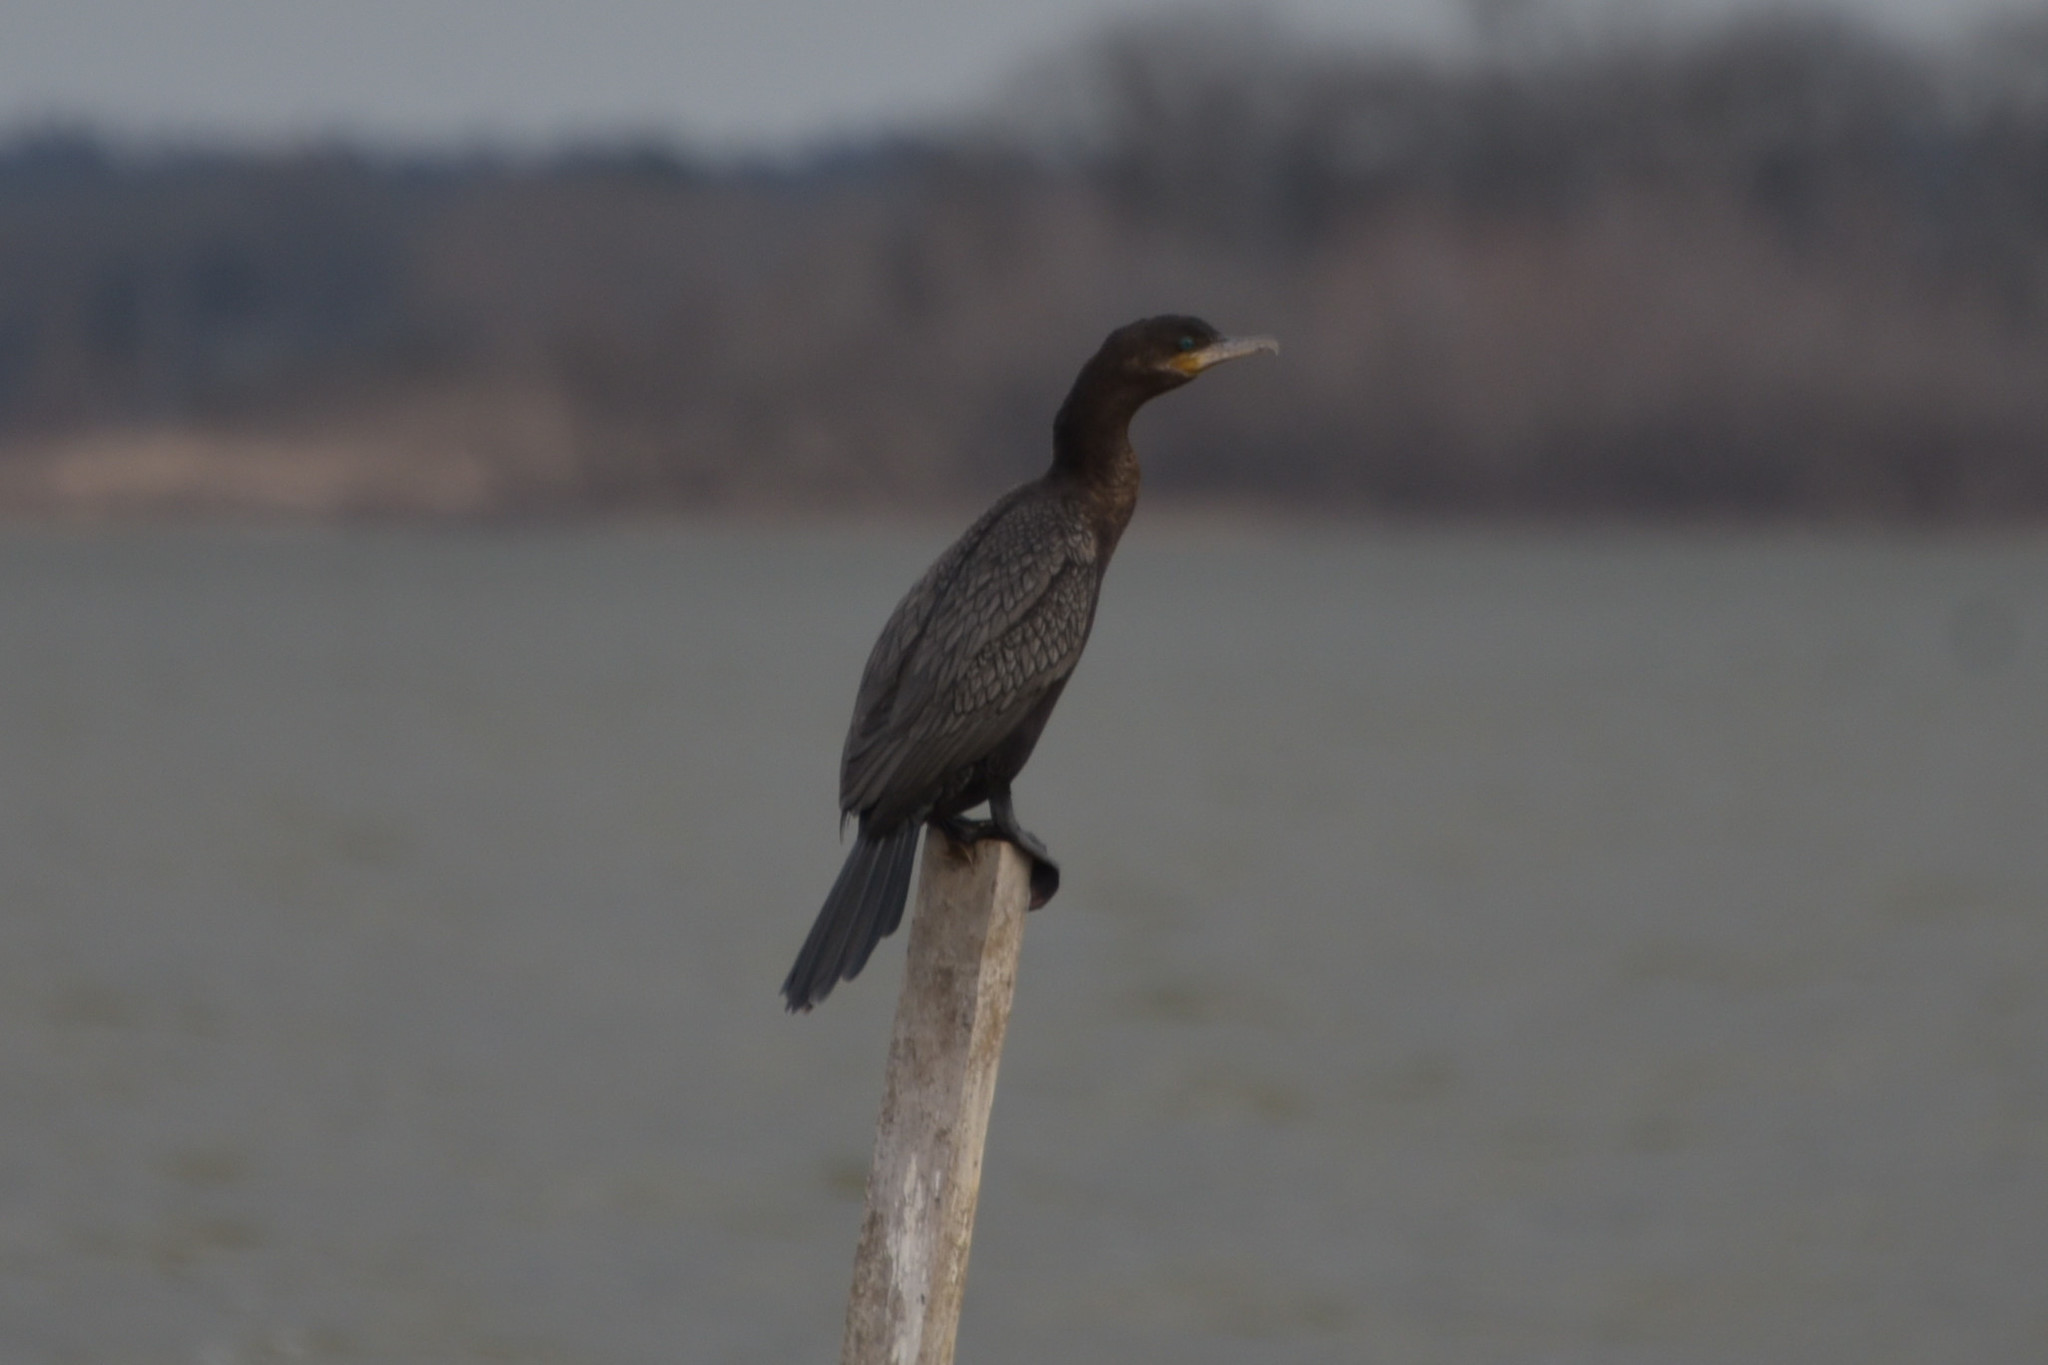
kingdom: Animalia
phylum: Chordata
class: Aves
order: Suliformes
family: Phalacrocoracidae
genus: Phalacrocorax
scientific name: Phalacrocorax brasilianus
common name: Neotropic cormorant
